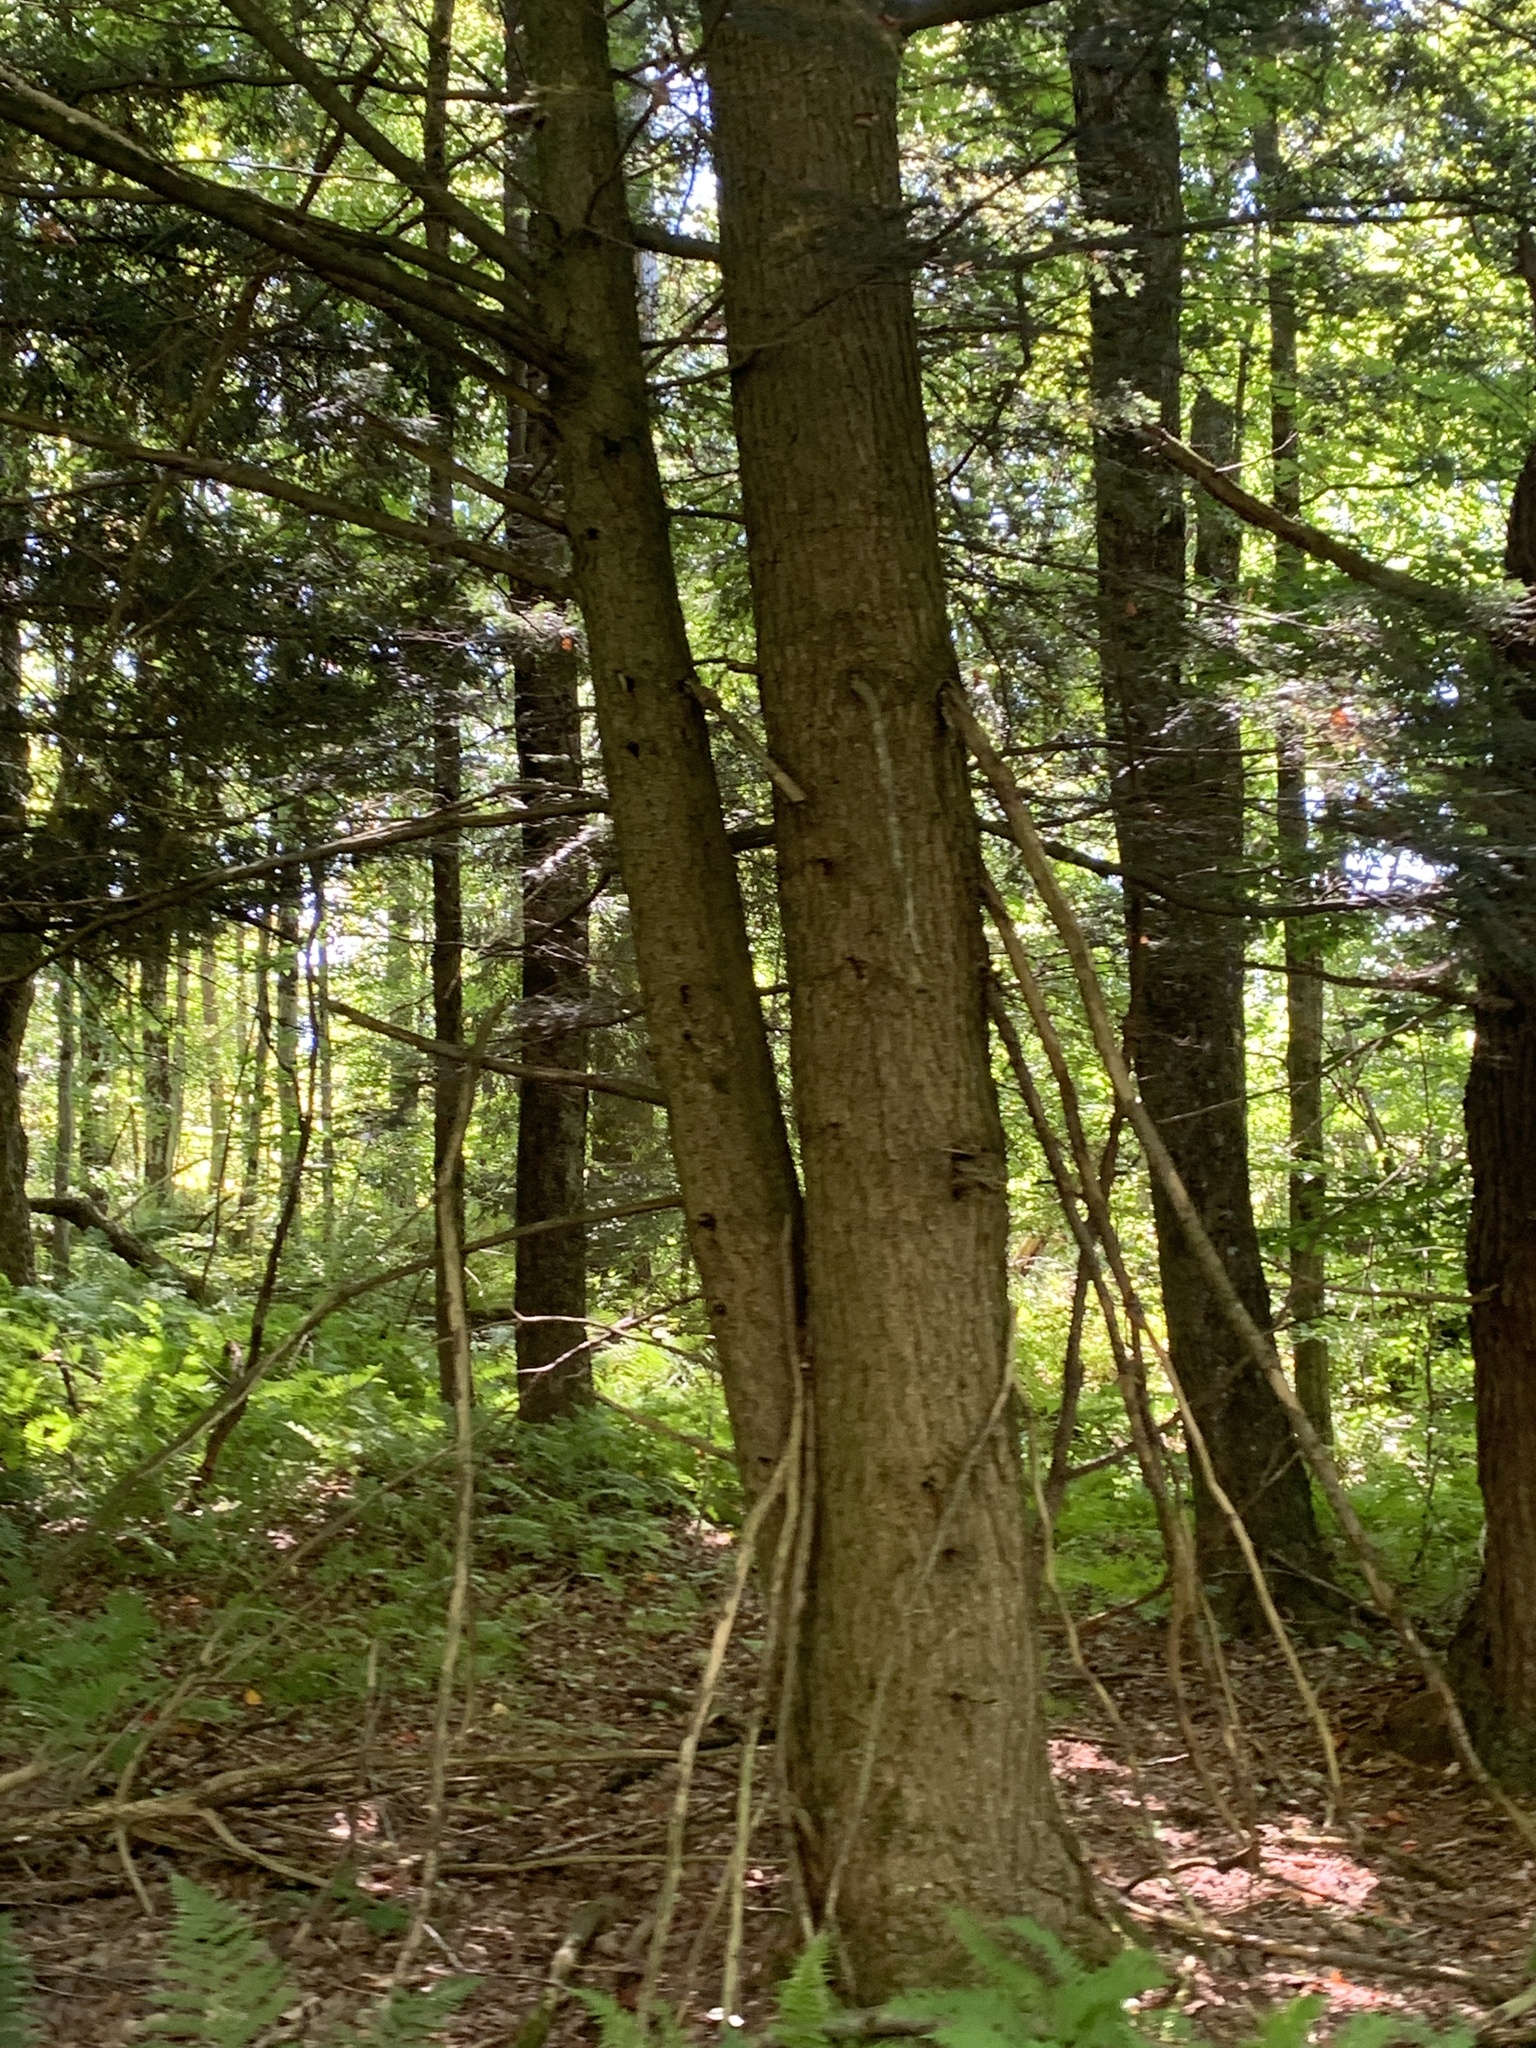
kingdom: Plantae
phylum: Tracheophyta
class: Pinopsida
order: Pinales
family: Pinaceae
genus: Tsuga
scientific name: Tsuga canadensis
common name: Eastern hemlock
